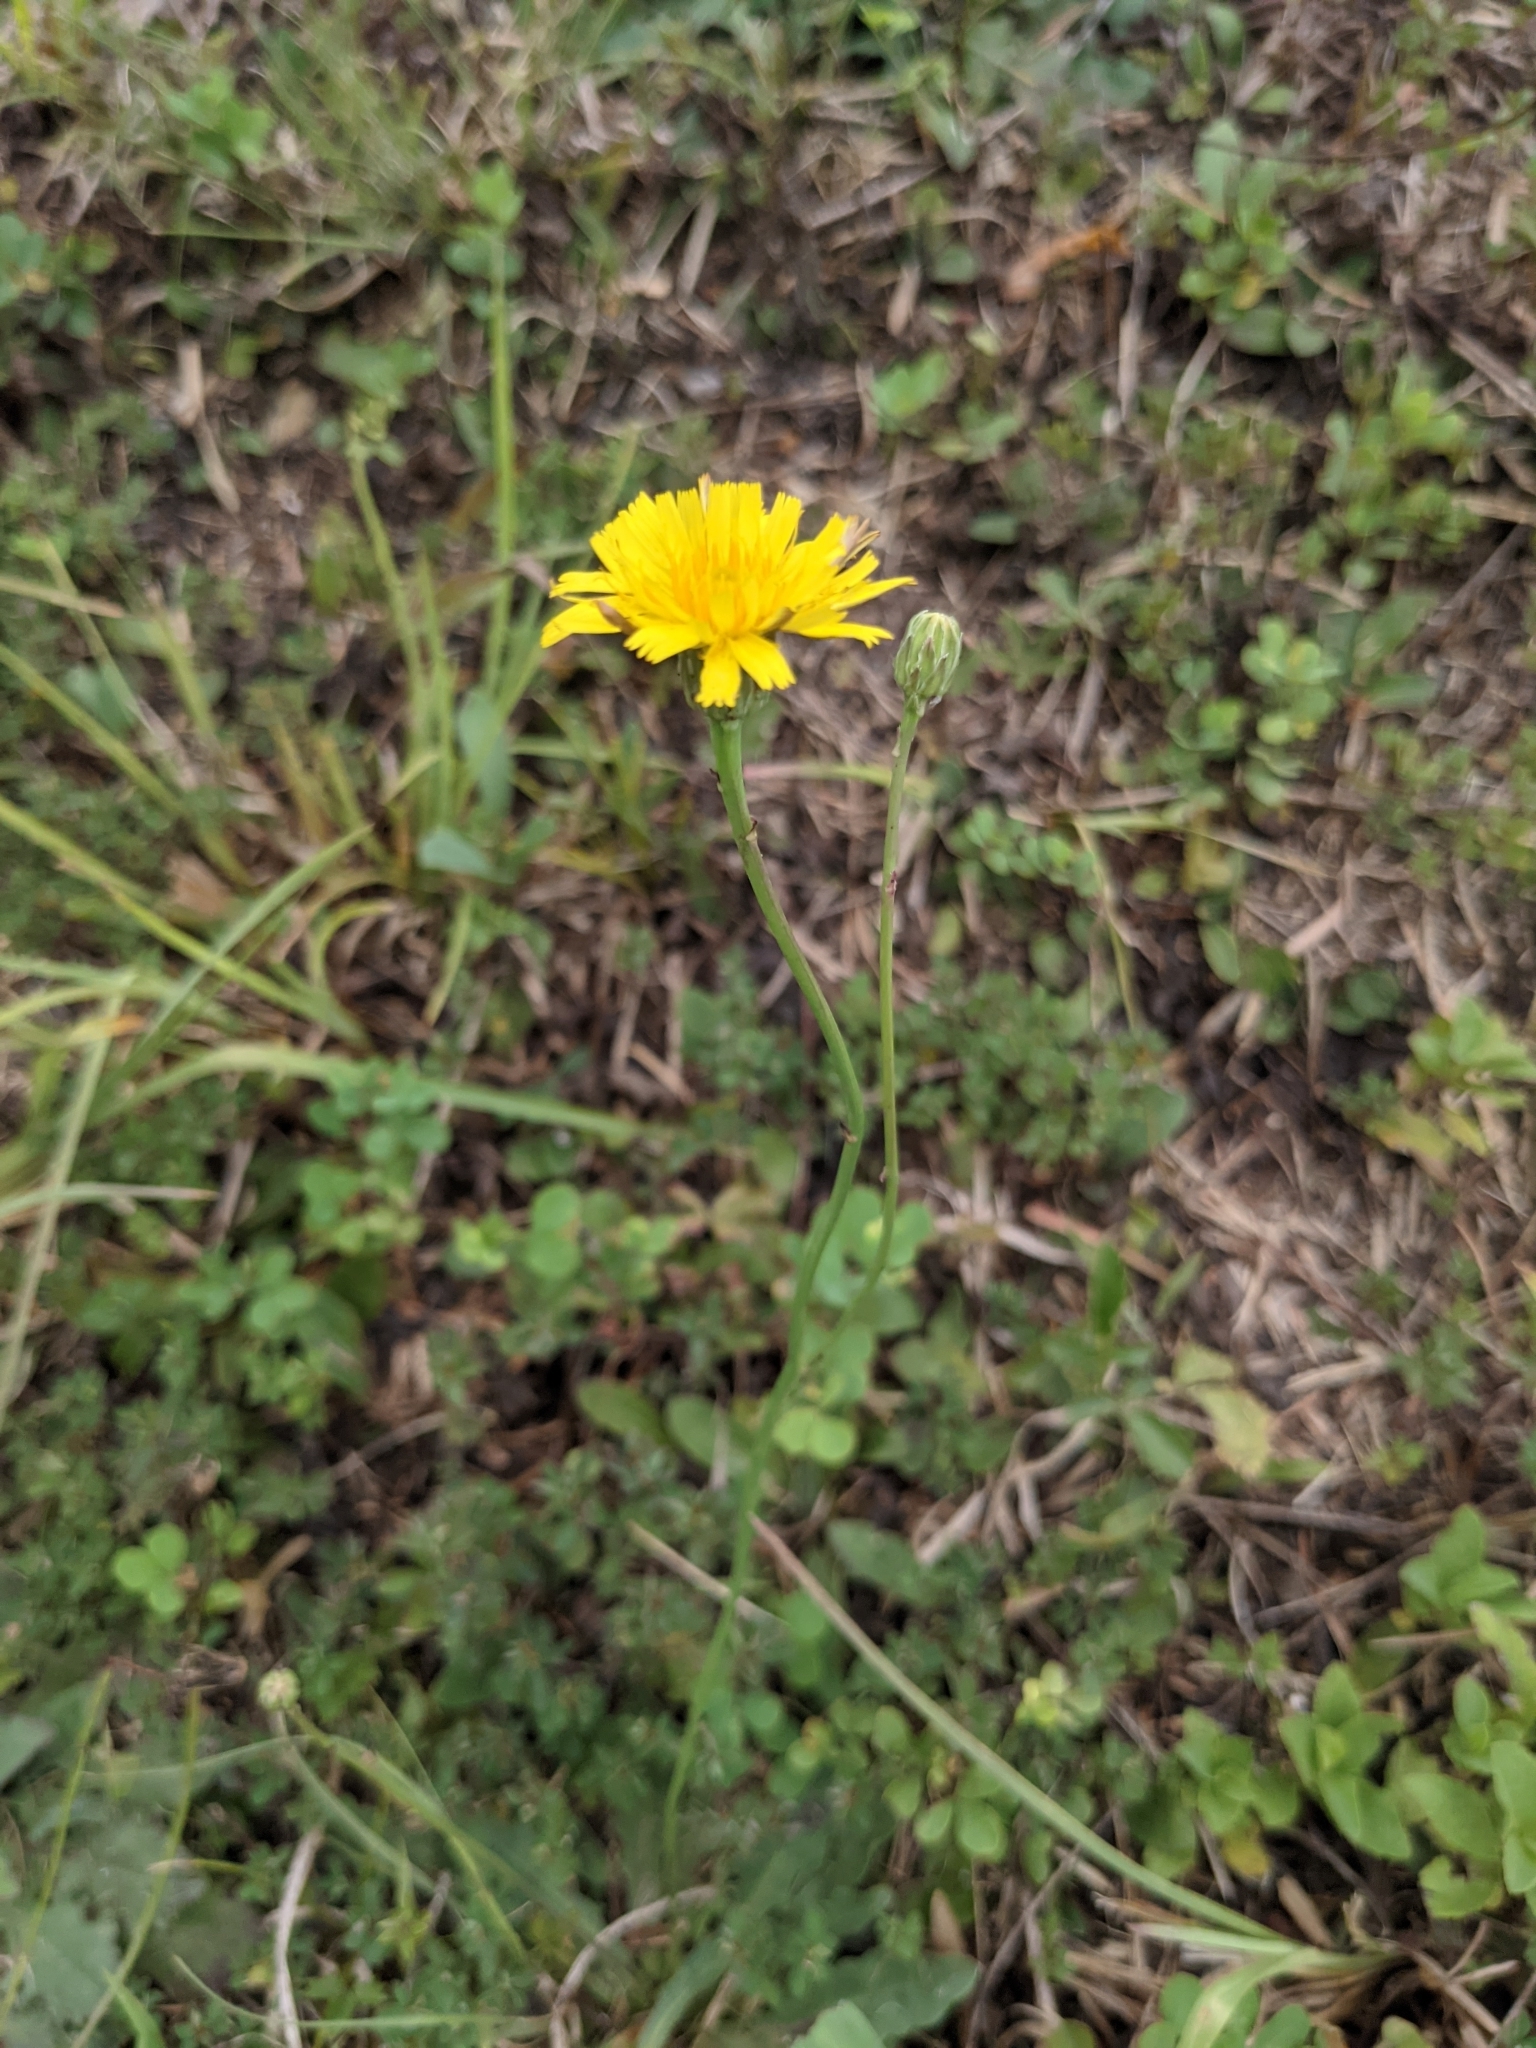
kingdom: Plantae
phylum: Tracheophyta
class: Magnoliopsida
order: Asterales
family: Asteraceae
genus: Hypochaeris
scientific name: Hypochaeris radicata
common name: Flatweed
